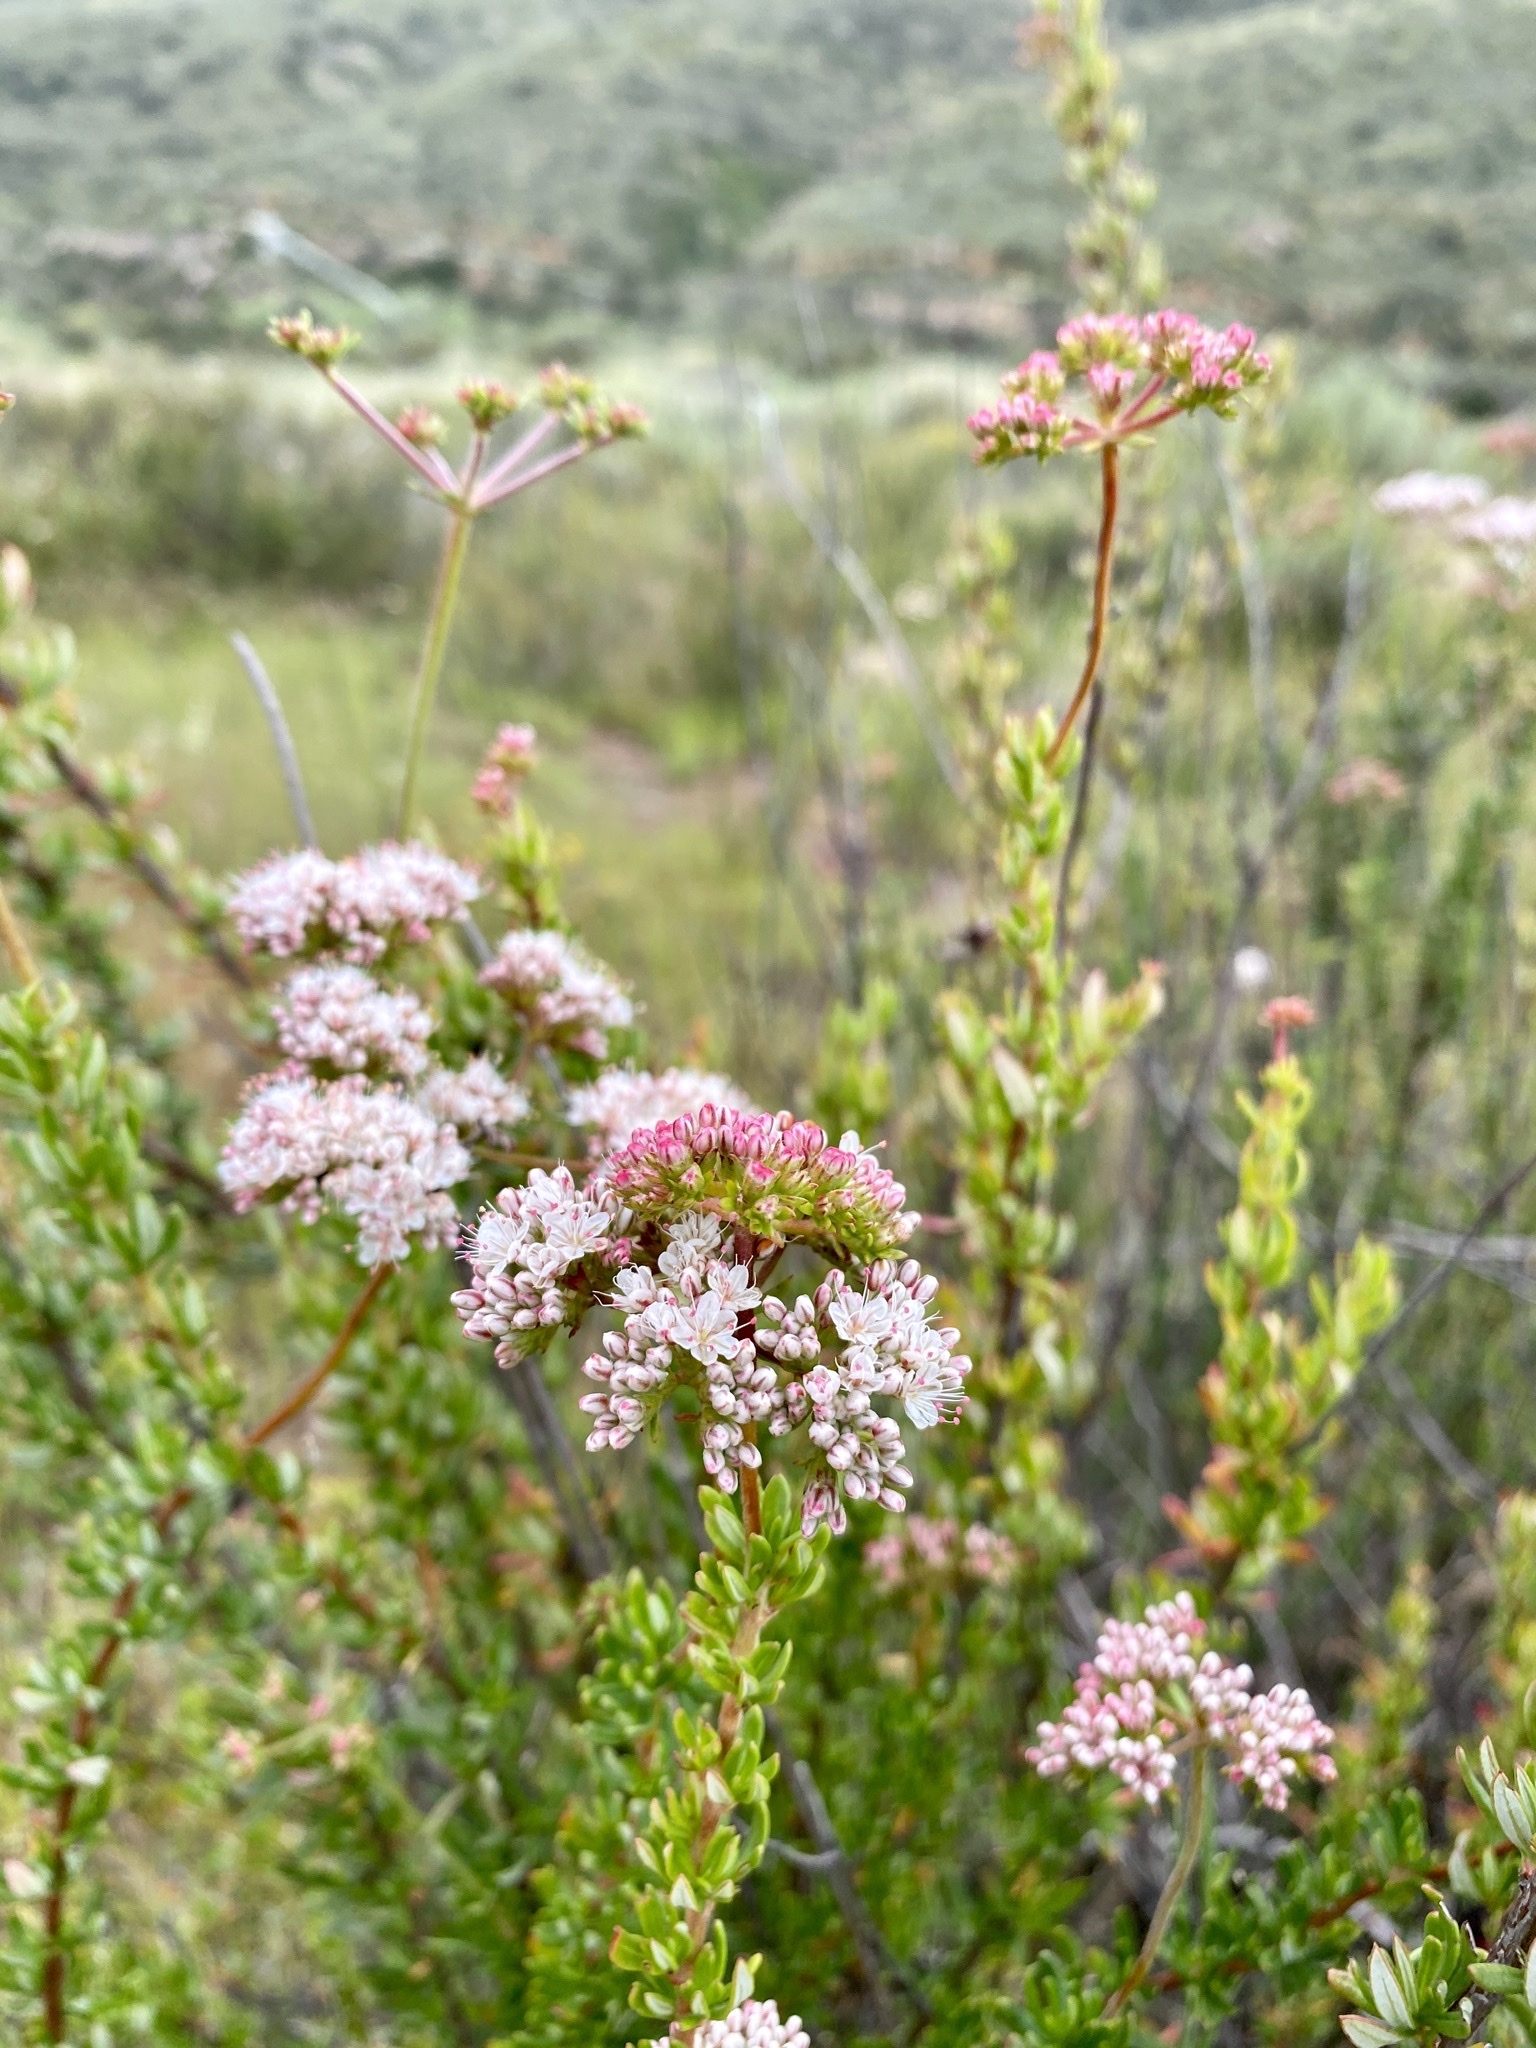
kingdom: Plantae
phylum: Tracheophyta
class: Magnoliopsida
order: Caryophyllales
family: Polygonaceae
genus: Eriogonum
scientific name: Eriogonum fasciculatum
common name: California wild buckwheat
